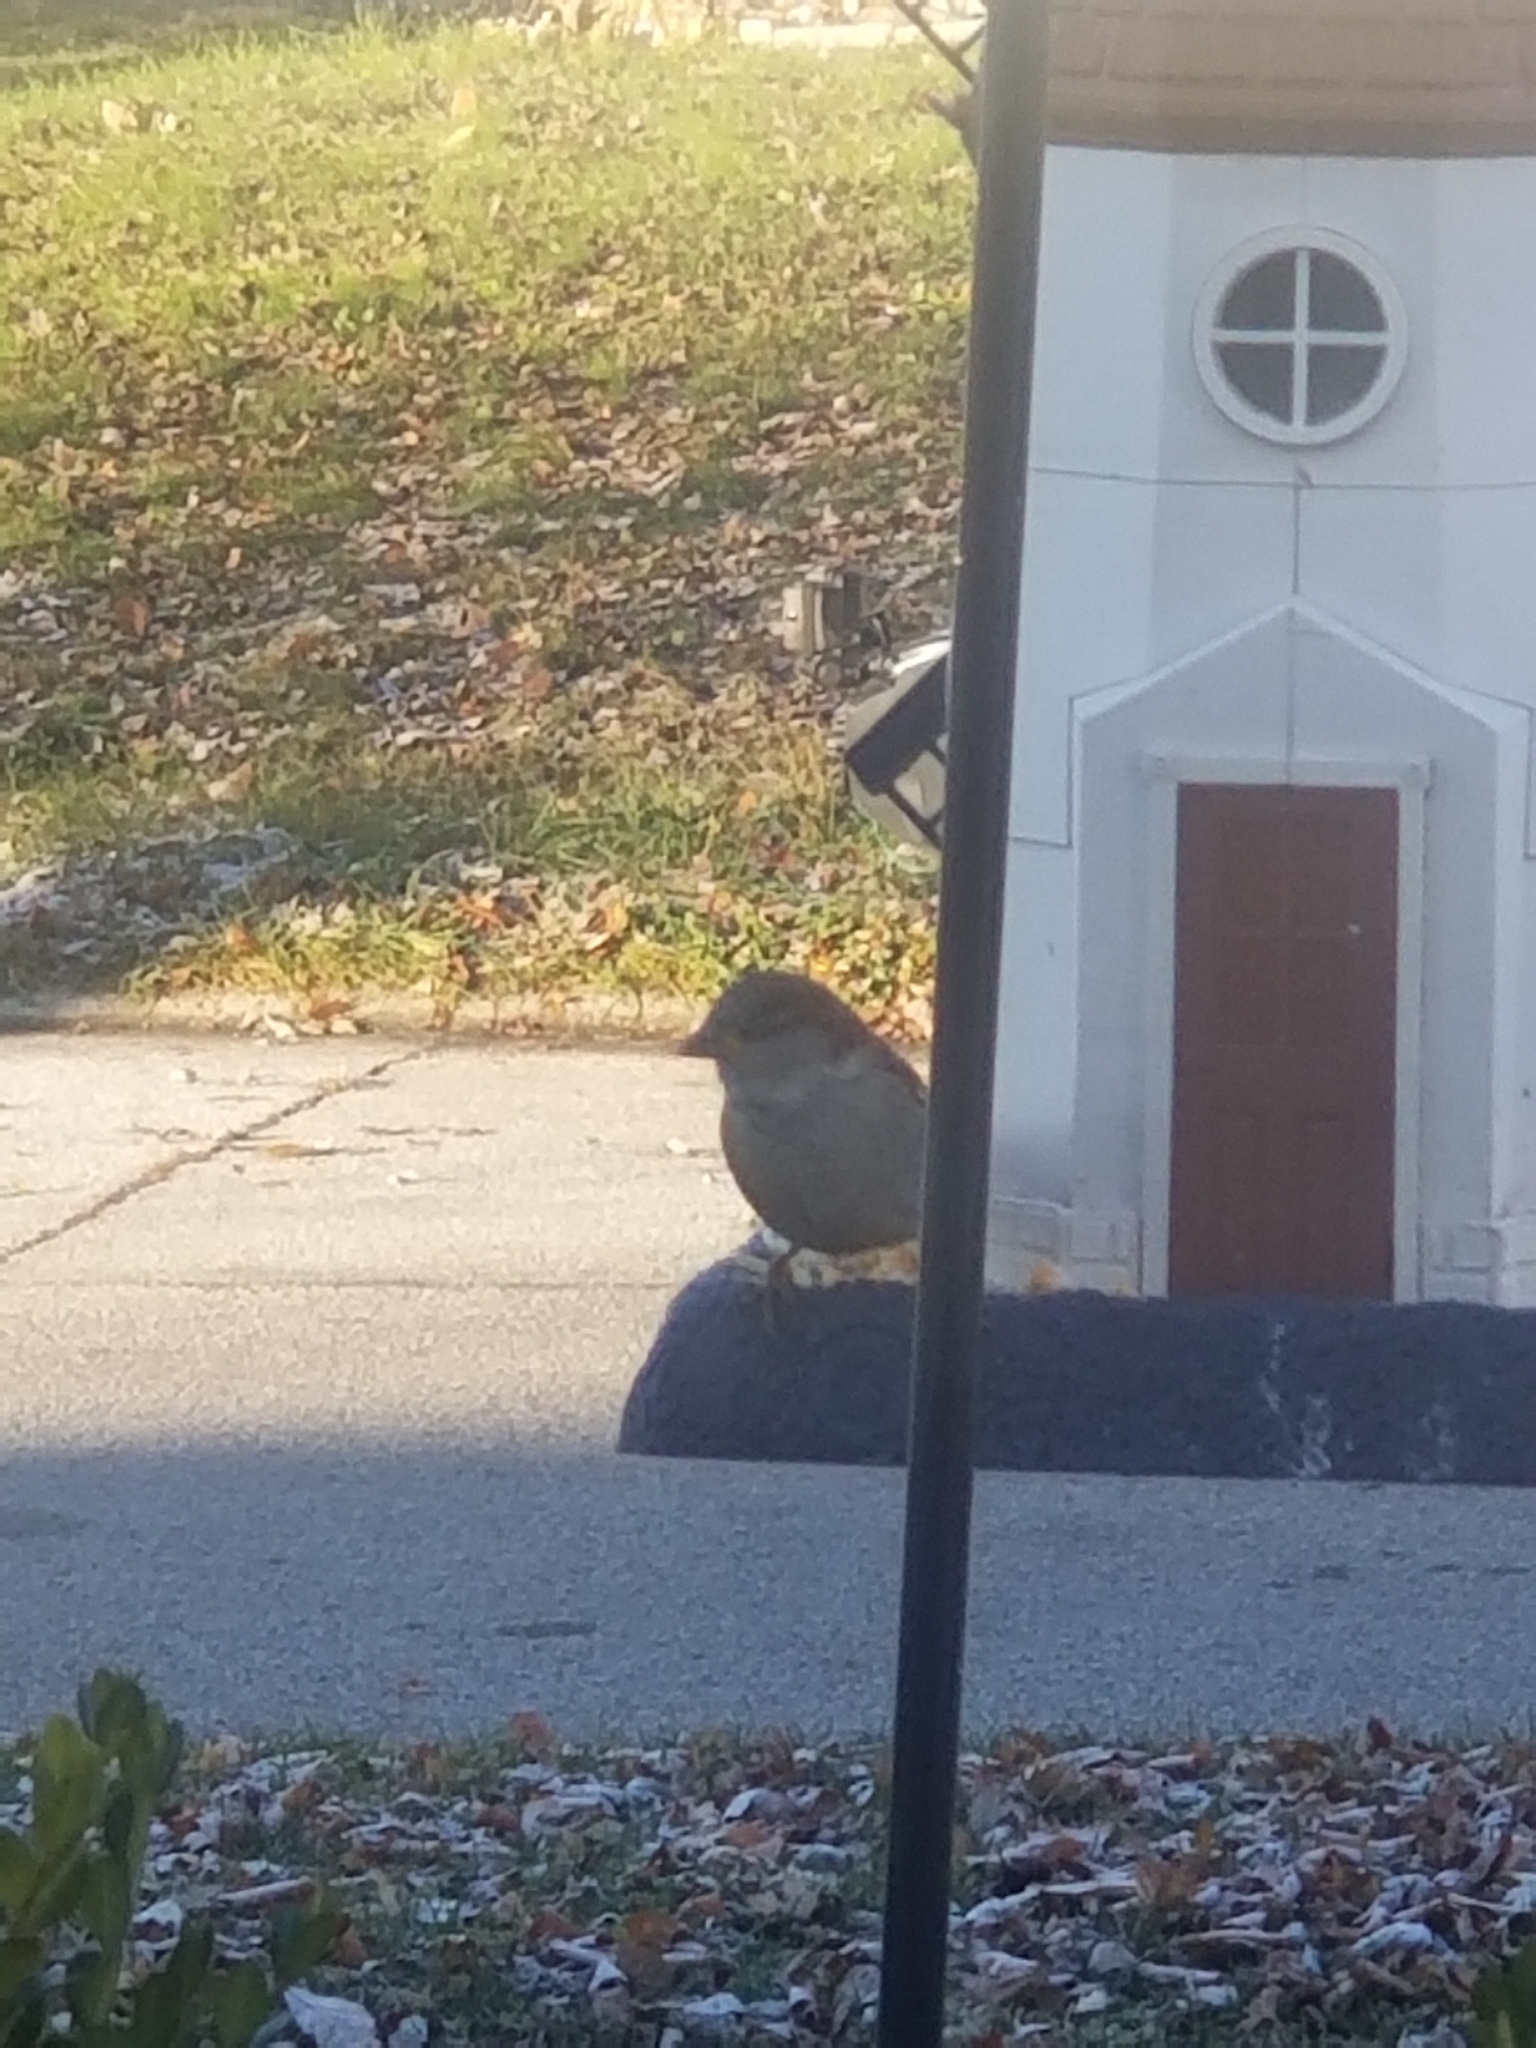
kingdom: Animalia
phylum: Chordata
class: Aves
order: Passeriformes
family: Passeridae
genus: Passer
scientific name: Passer domesticus
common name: House sparrow
